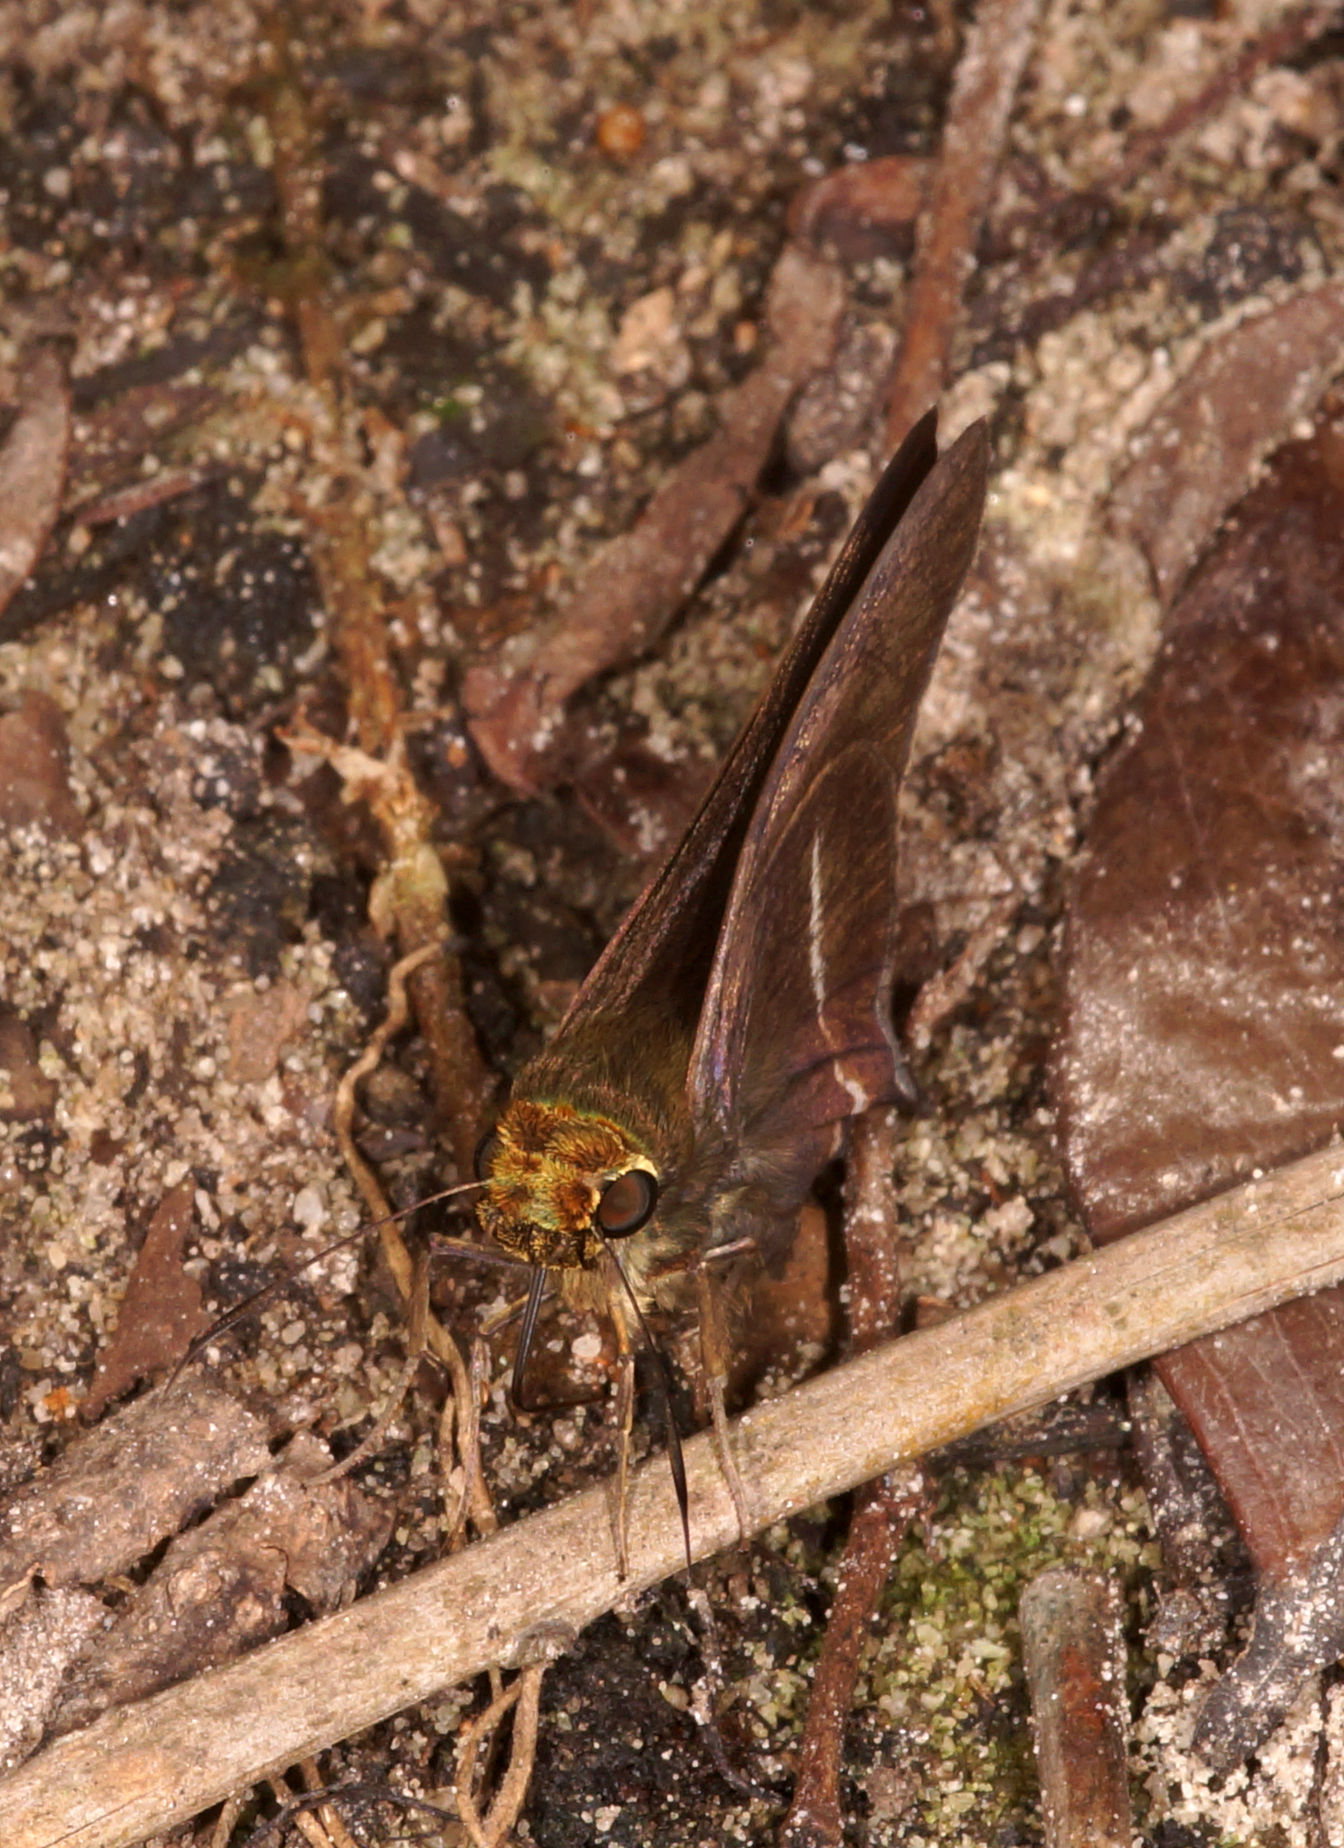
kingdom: Animalia
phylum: Arthropoda
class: Insecta
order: Lepidoptera
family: Hesperiidae
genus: Hasora
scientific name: Hasora taminatus
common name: White banded awl
